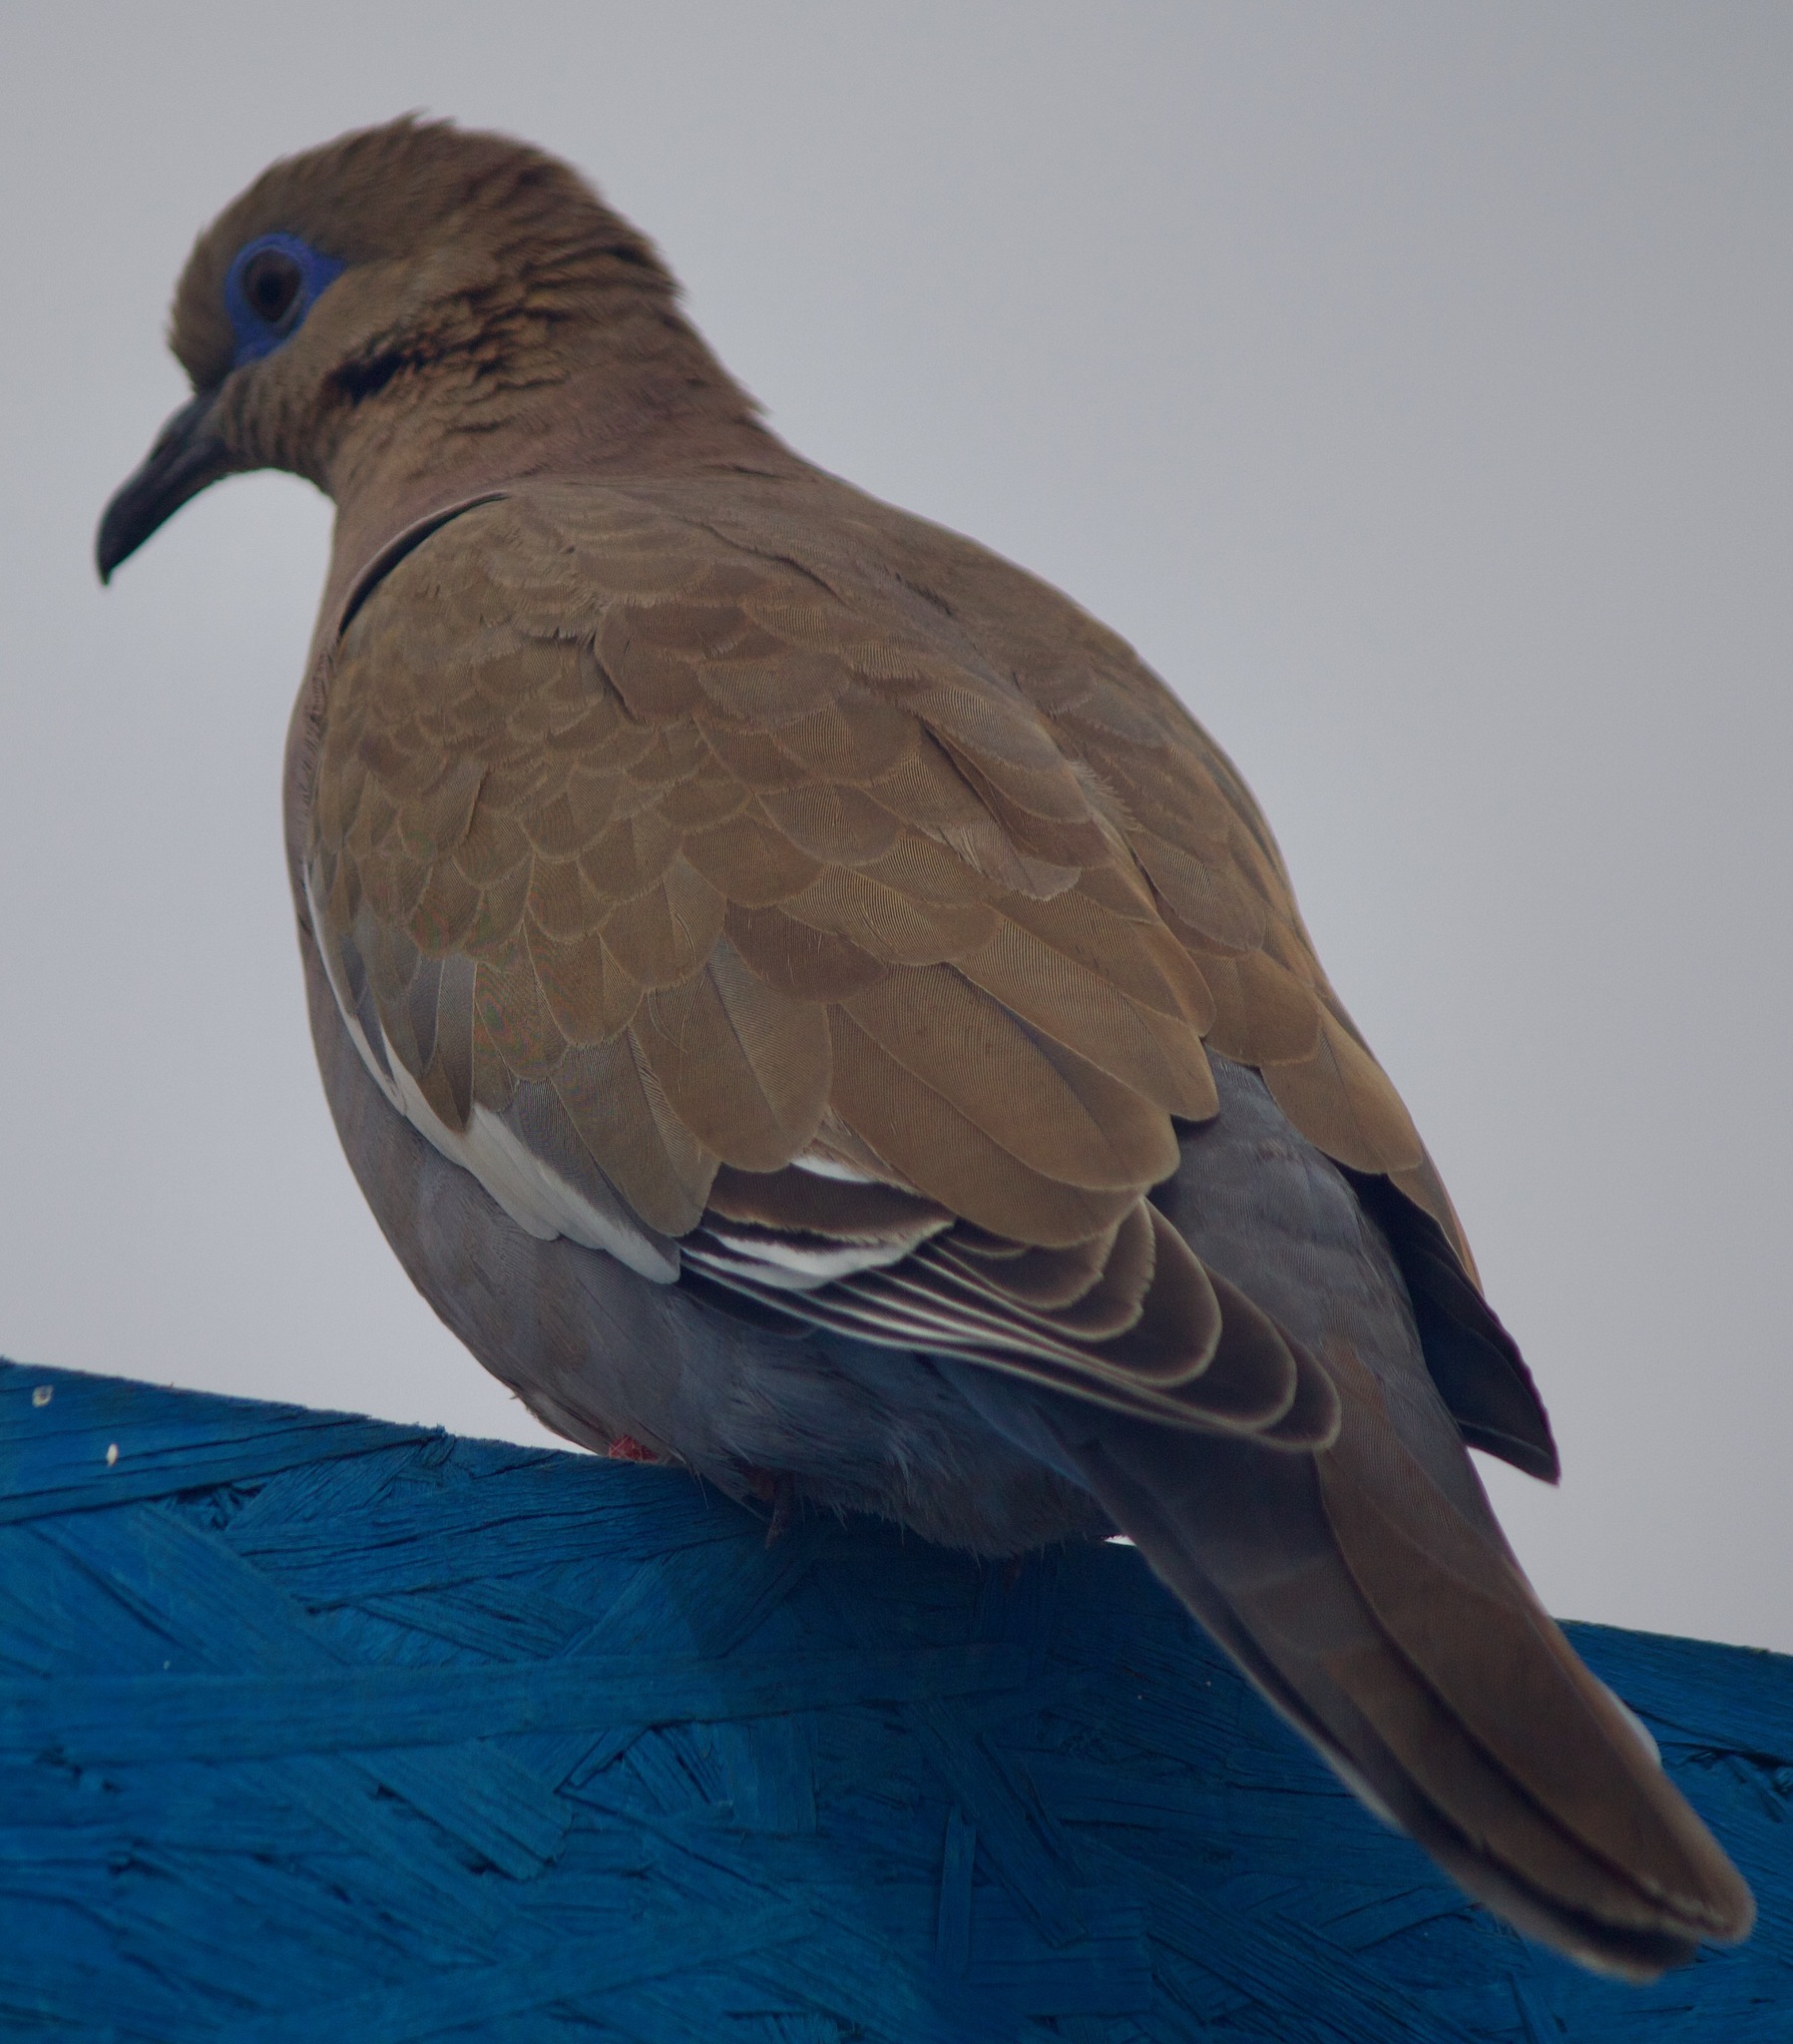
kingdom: Animalia
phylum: Chordata
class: Aves
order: Columbiformes
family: Columbidae
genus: Zenaida
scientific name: Zenaida meloda
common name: West peruvian dove
